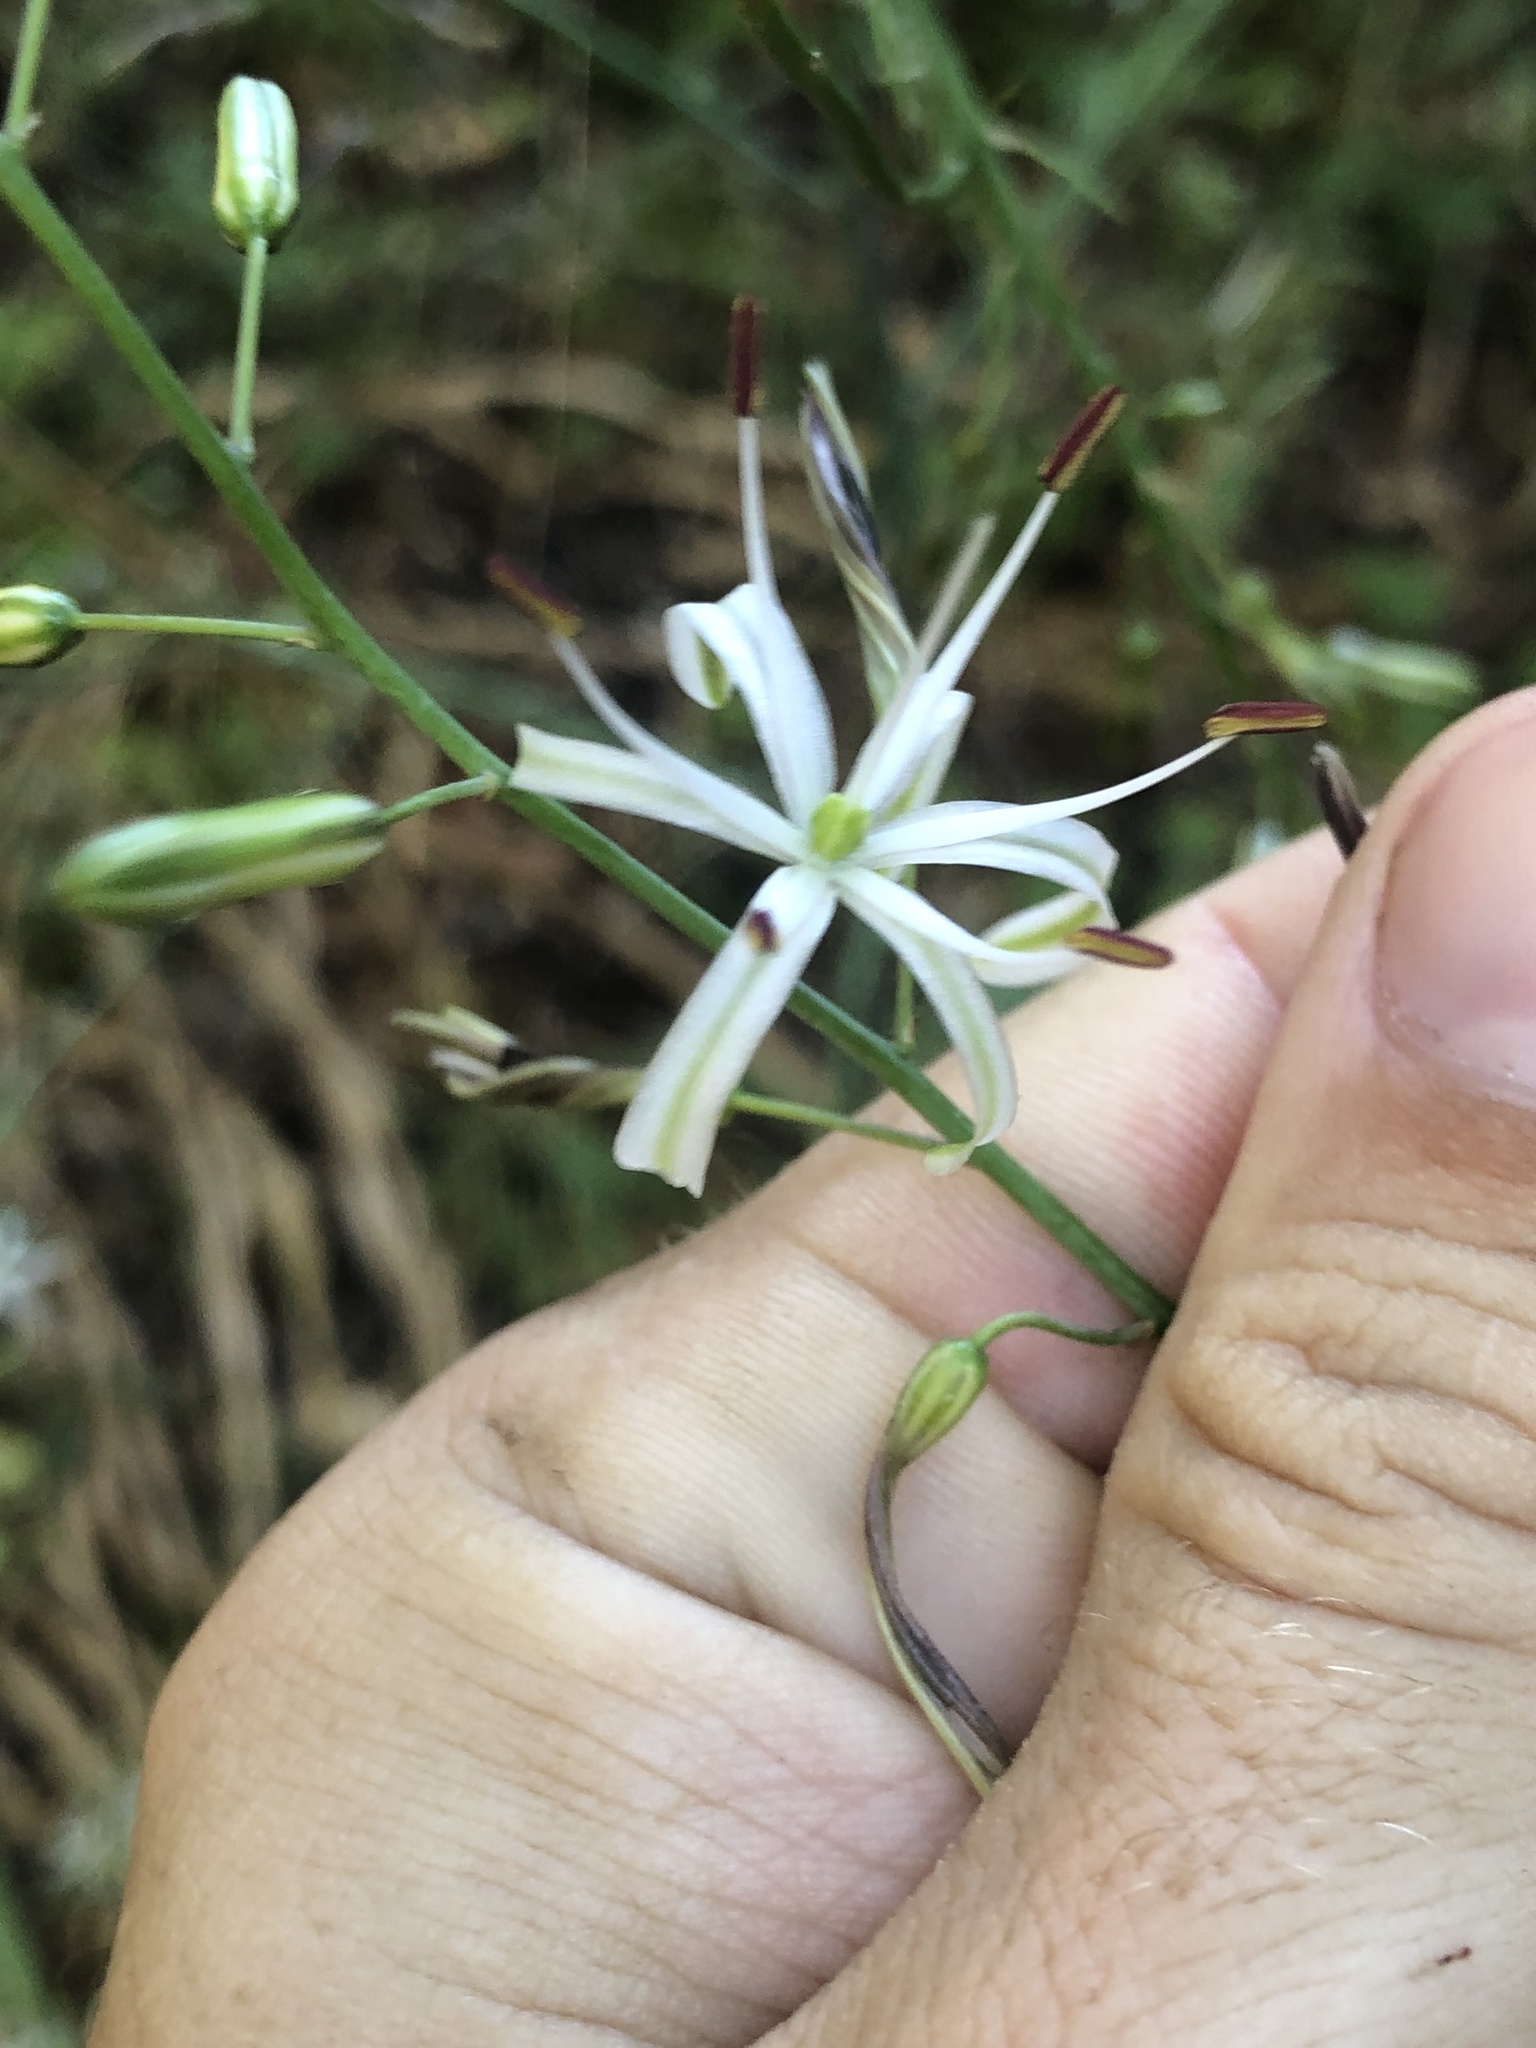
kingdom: Plantae
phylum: Tracheophyta
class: Liliopsida
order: Asparagales
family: Asparagaceae
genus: Chlorogalum
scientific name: Chlorogalum pomeridianum
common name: Amole
